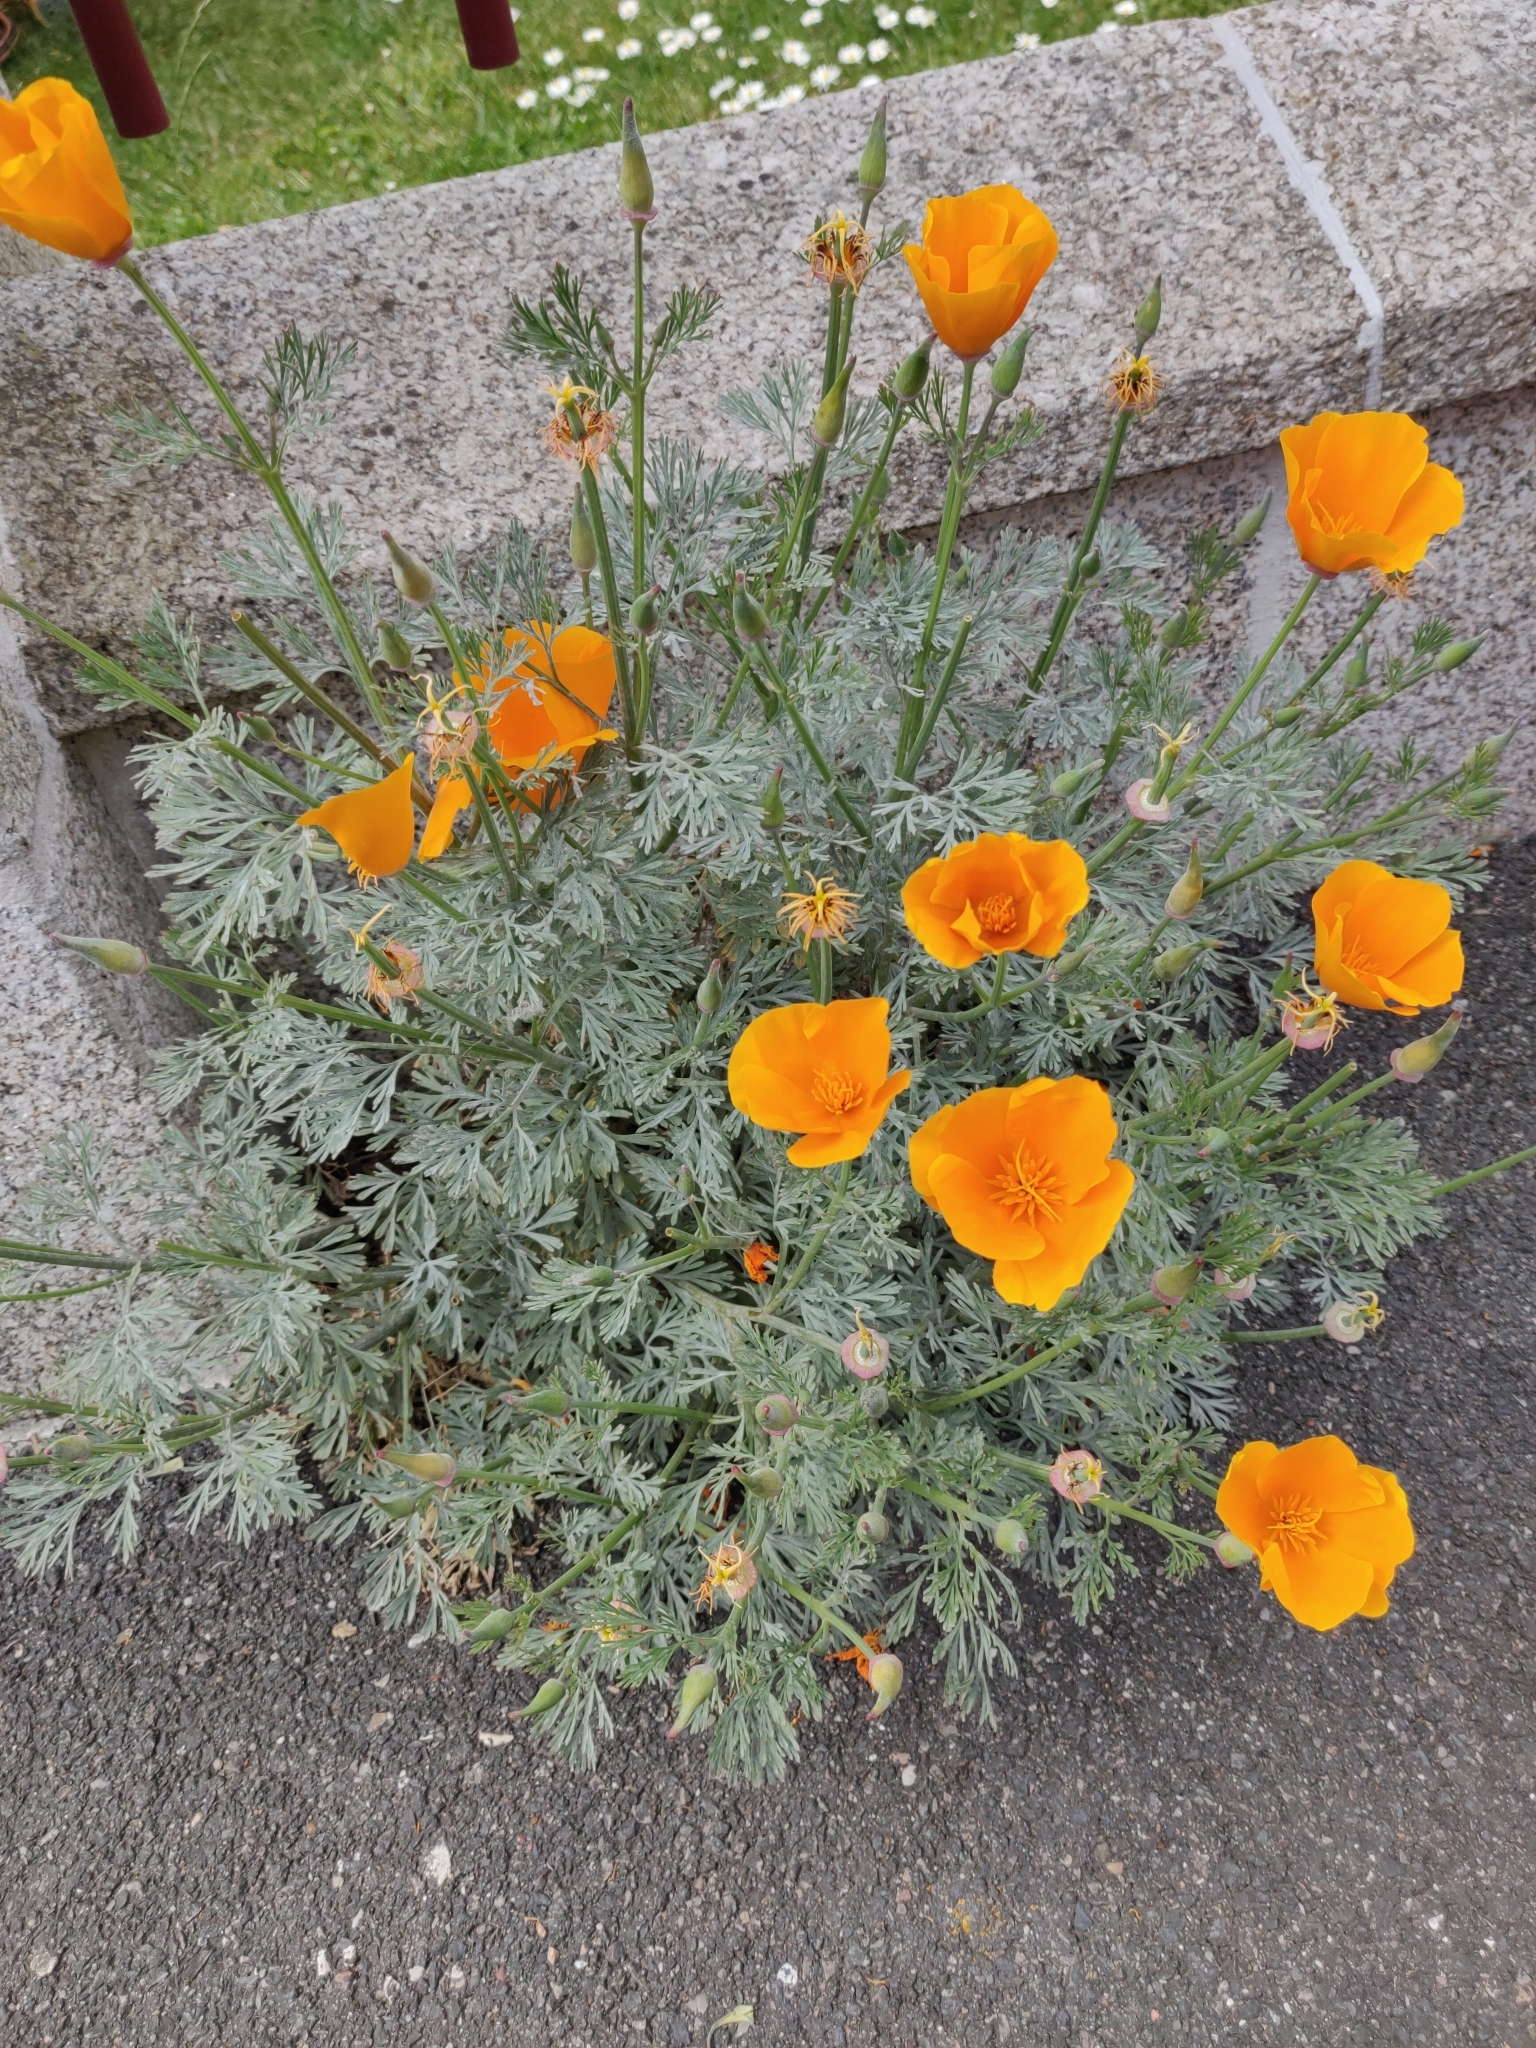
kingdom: Plantae
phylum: Tracheophyta
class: Magnoliopsida
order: Ranunculales
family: Papaveraceae
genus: Eschscholzia
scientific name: Eschscholzia californica
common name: California poppy
